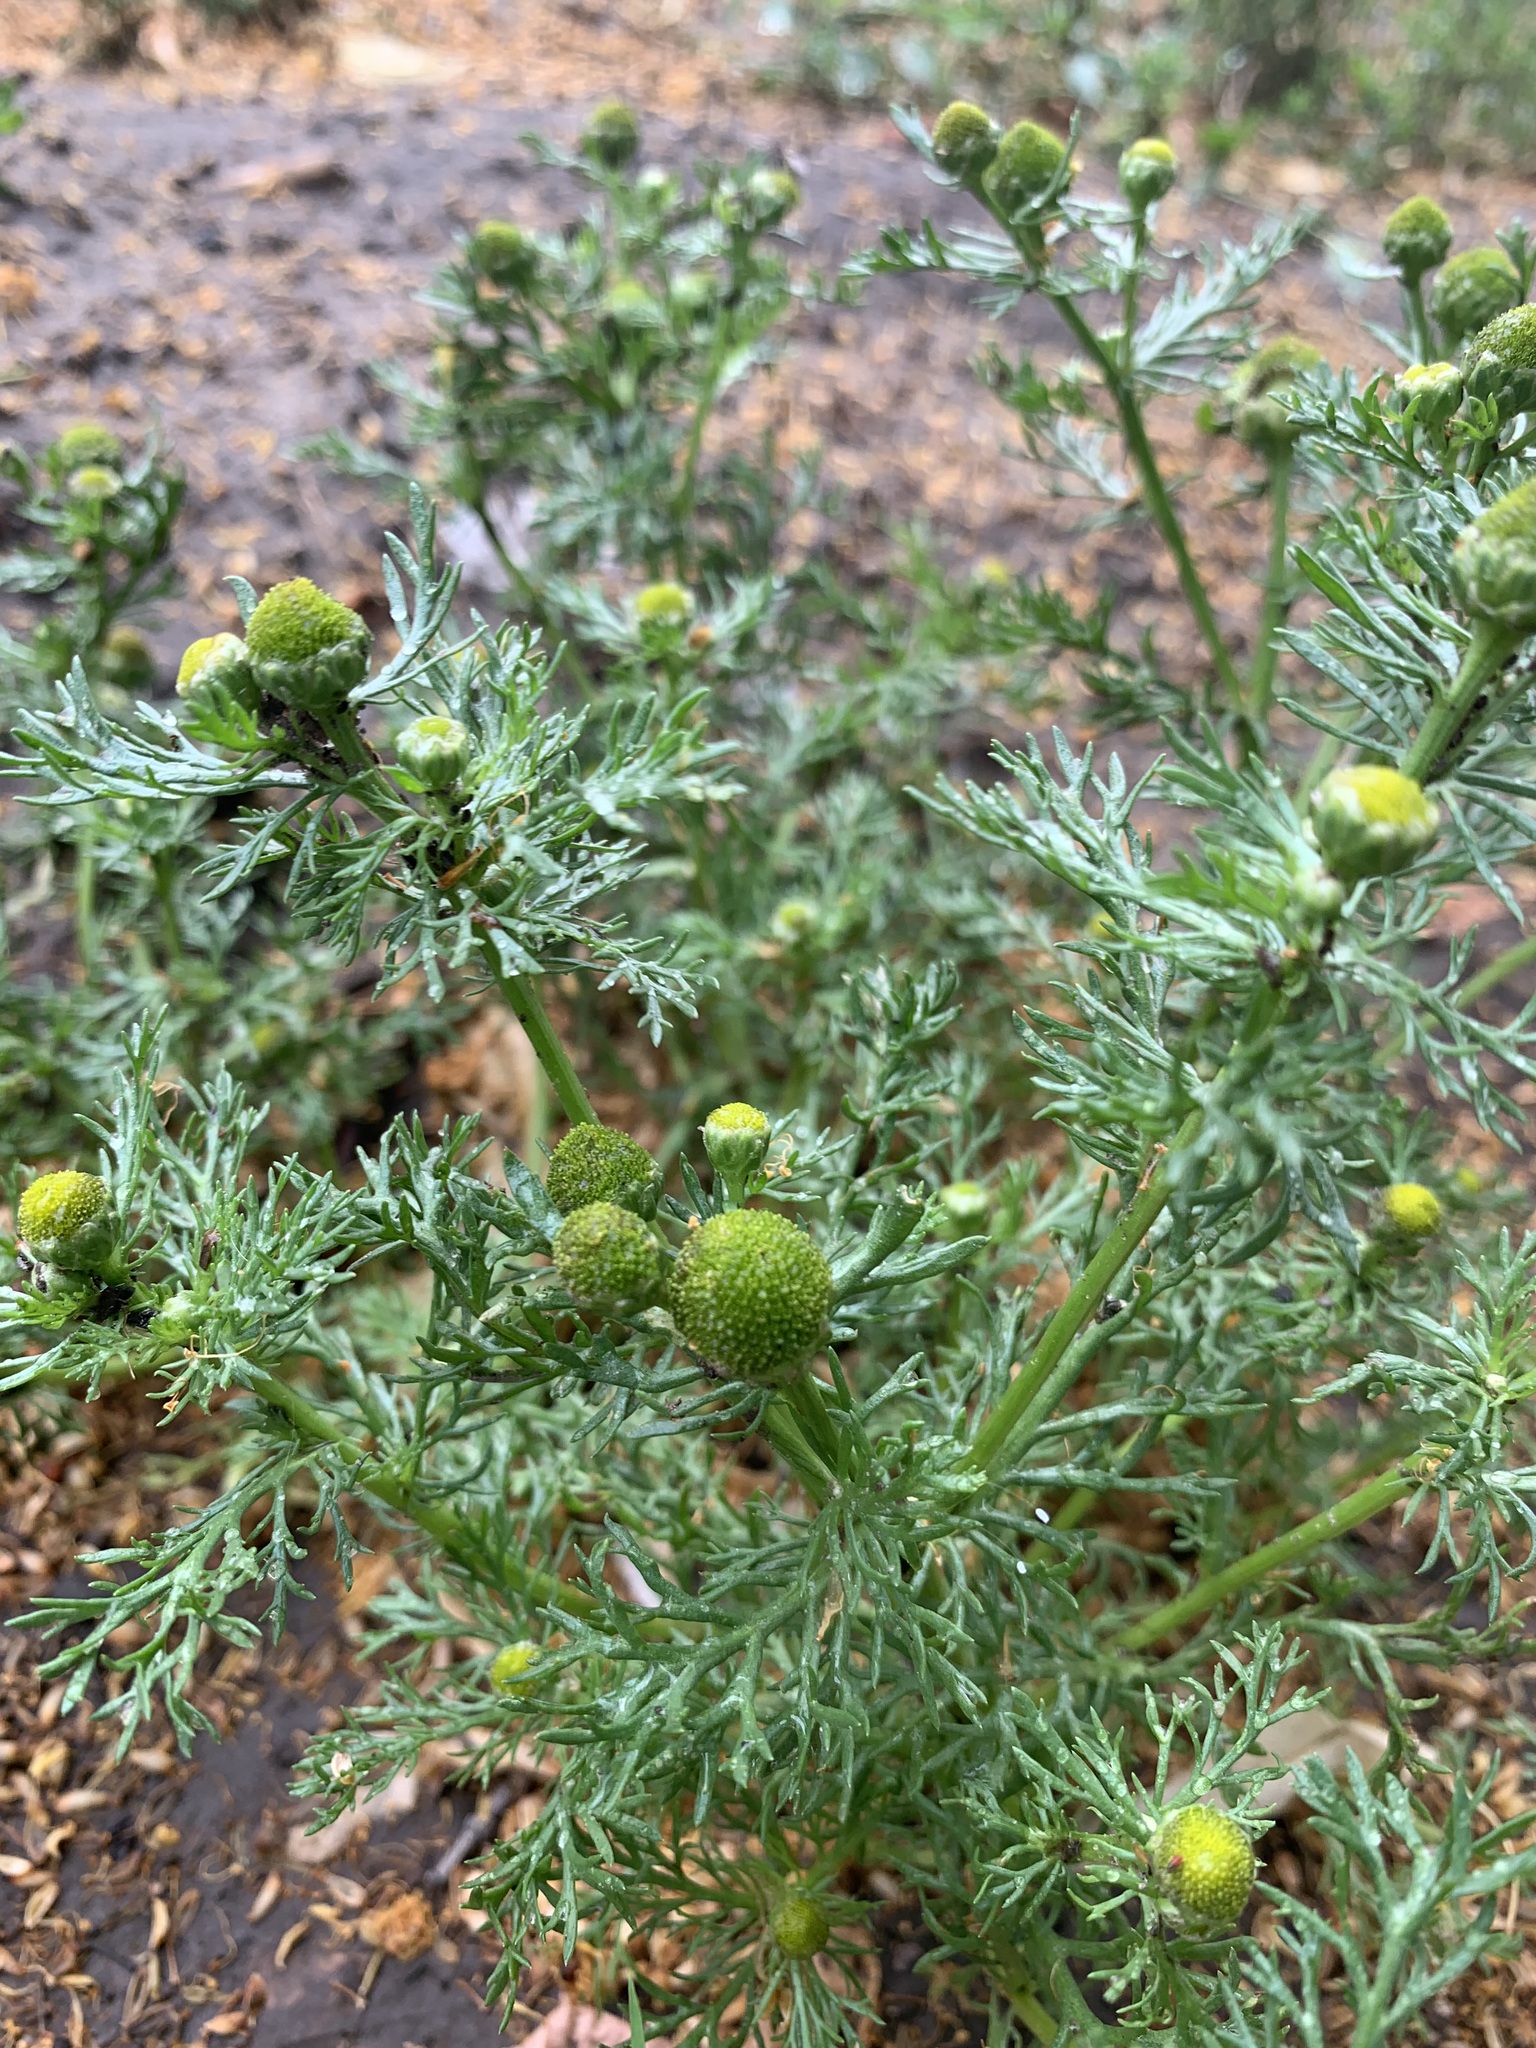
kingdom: Plantae
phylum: Tracheophyta
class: Magnoliopsida
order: Asterales
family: Asteraceae
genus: Matricaria
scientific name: Matricaria discoidea
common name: Disc mayweed
